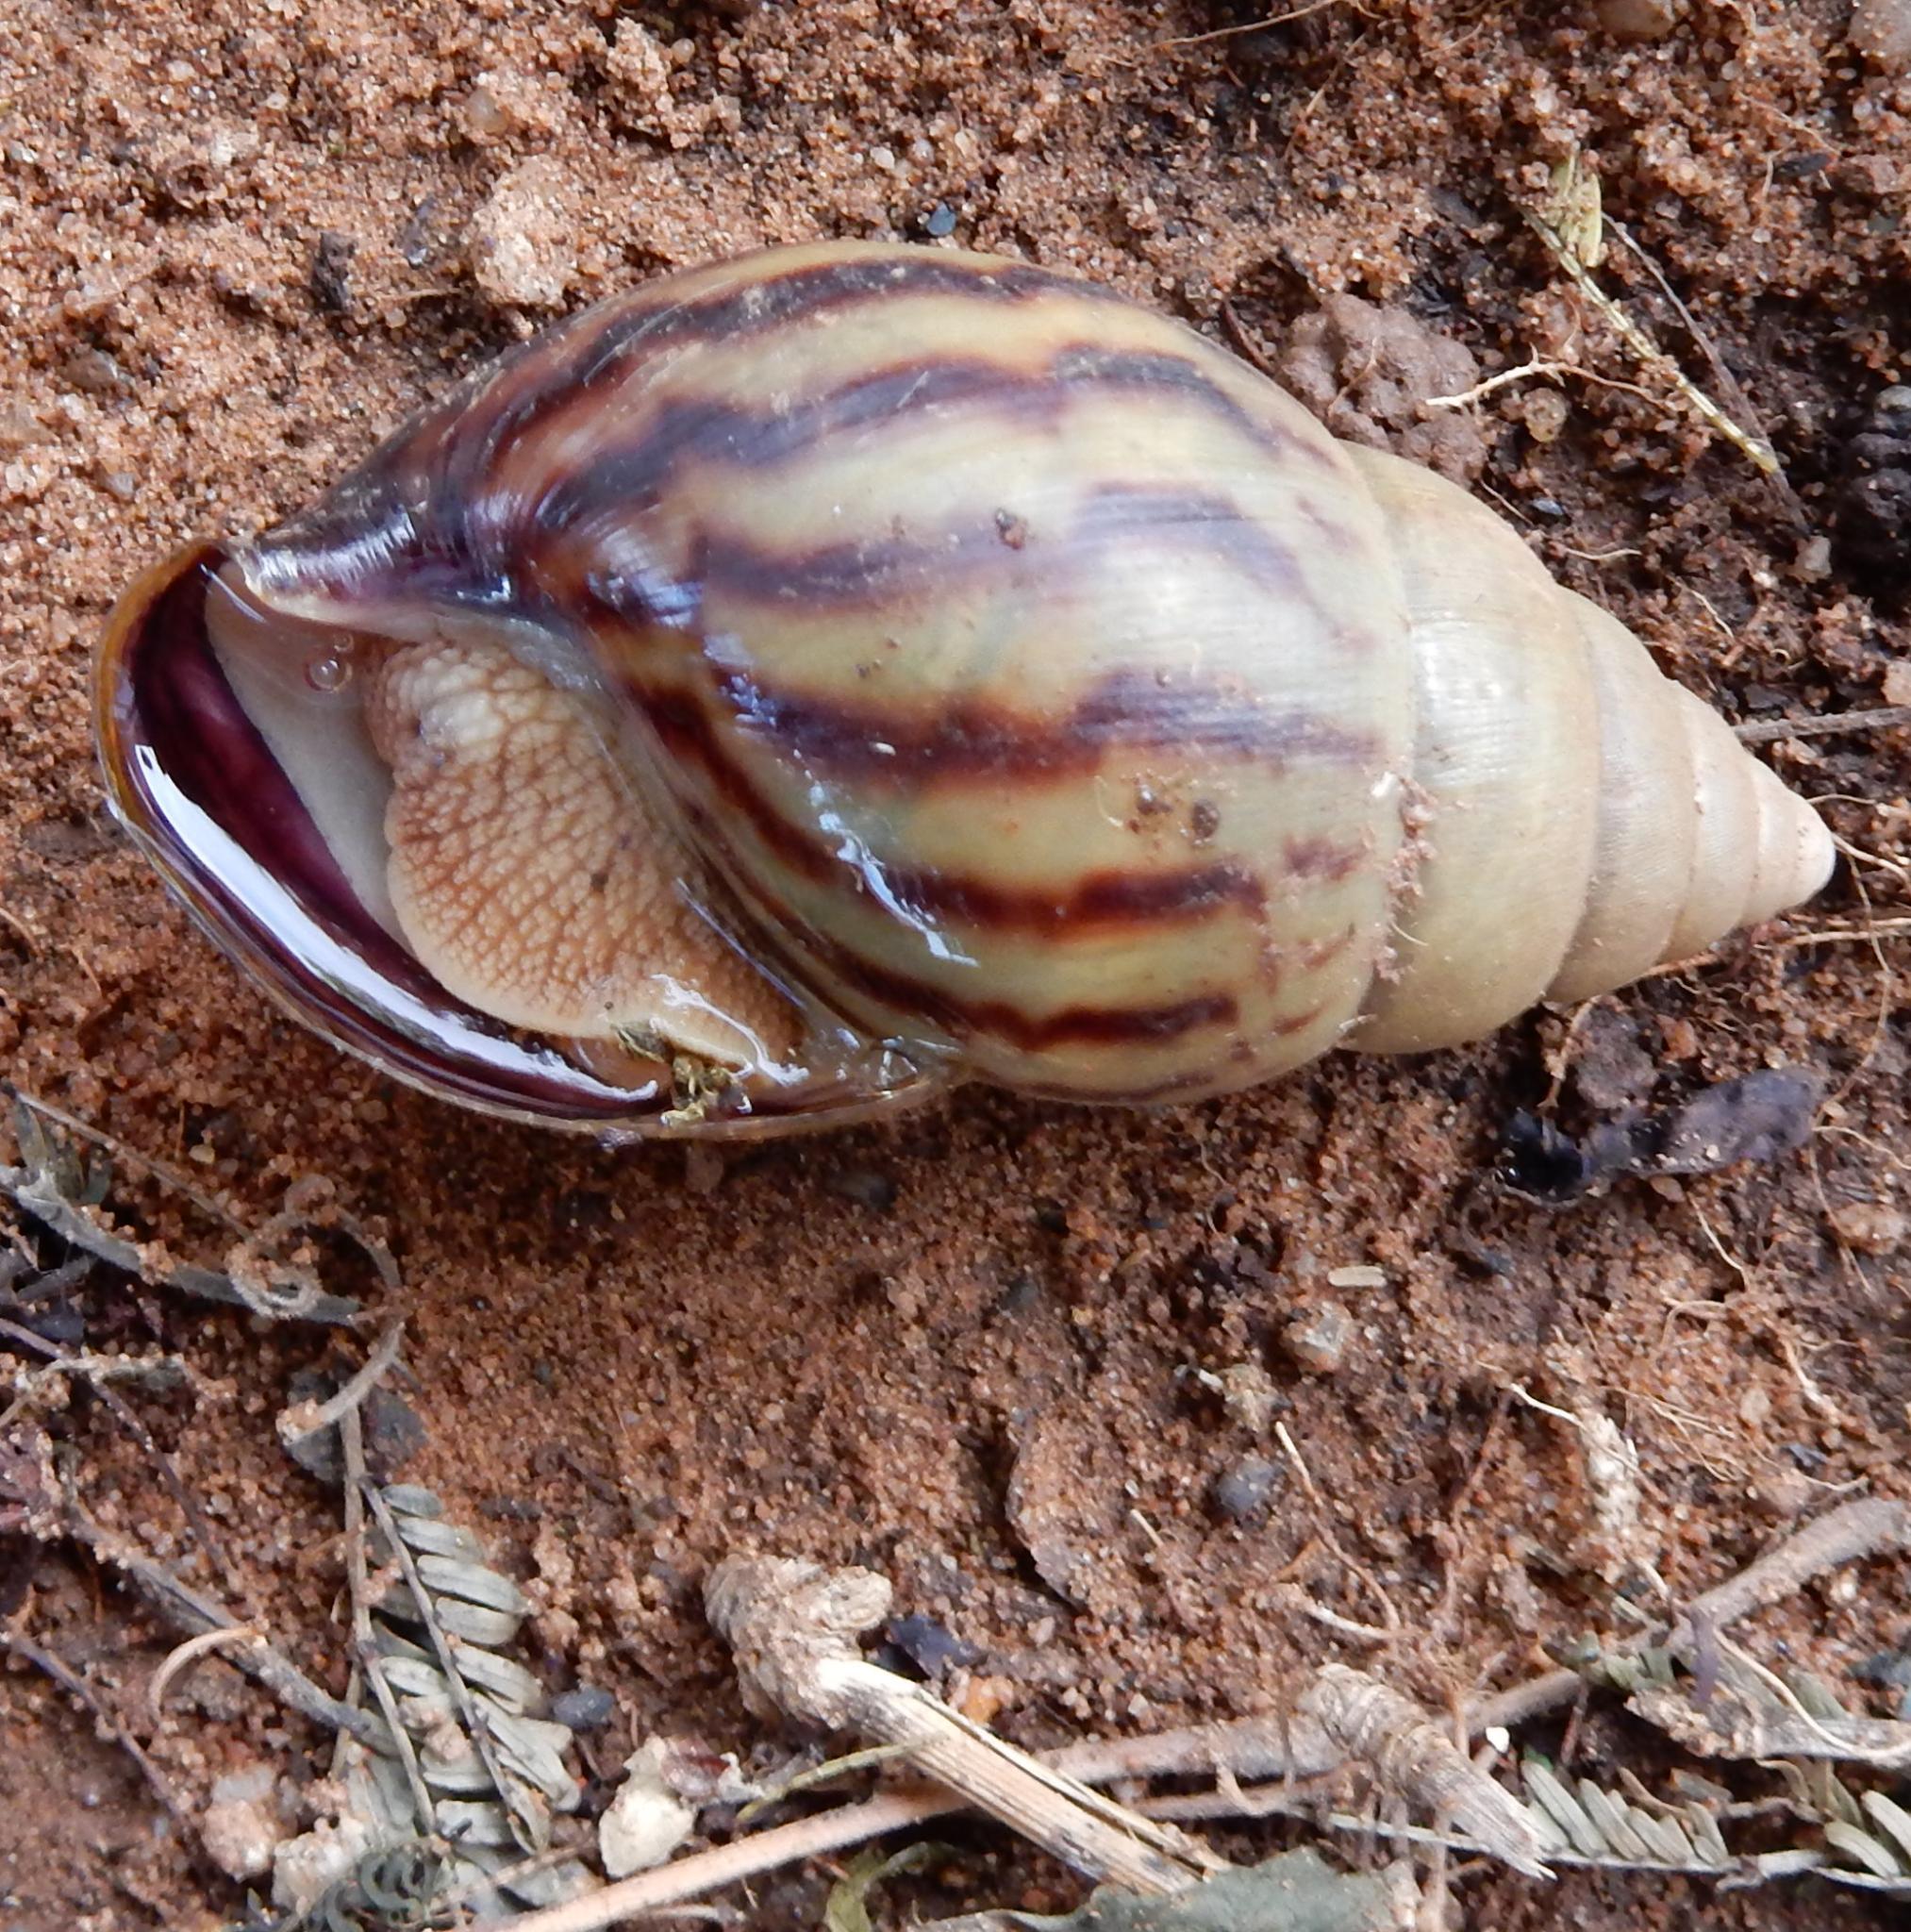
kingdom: Animalia
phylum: Mollusca
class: Gastropoda
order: Stylommatophora
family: Achatinidae
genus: Achatina
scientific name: Achatina smithii
